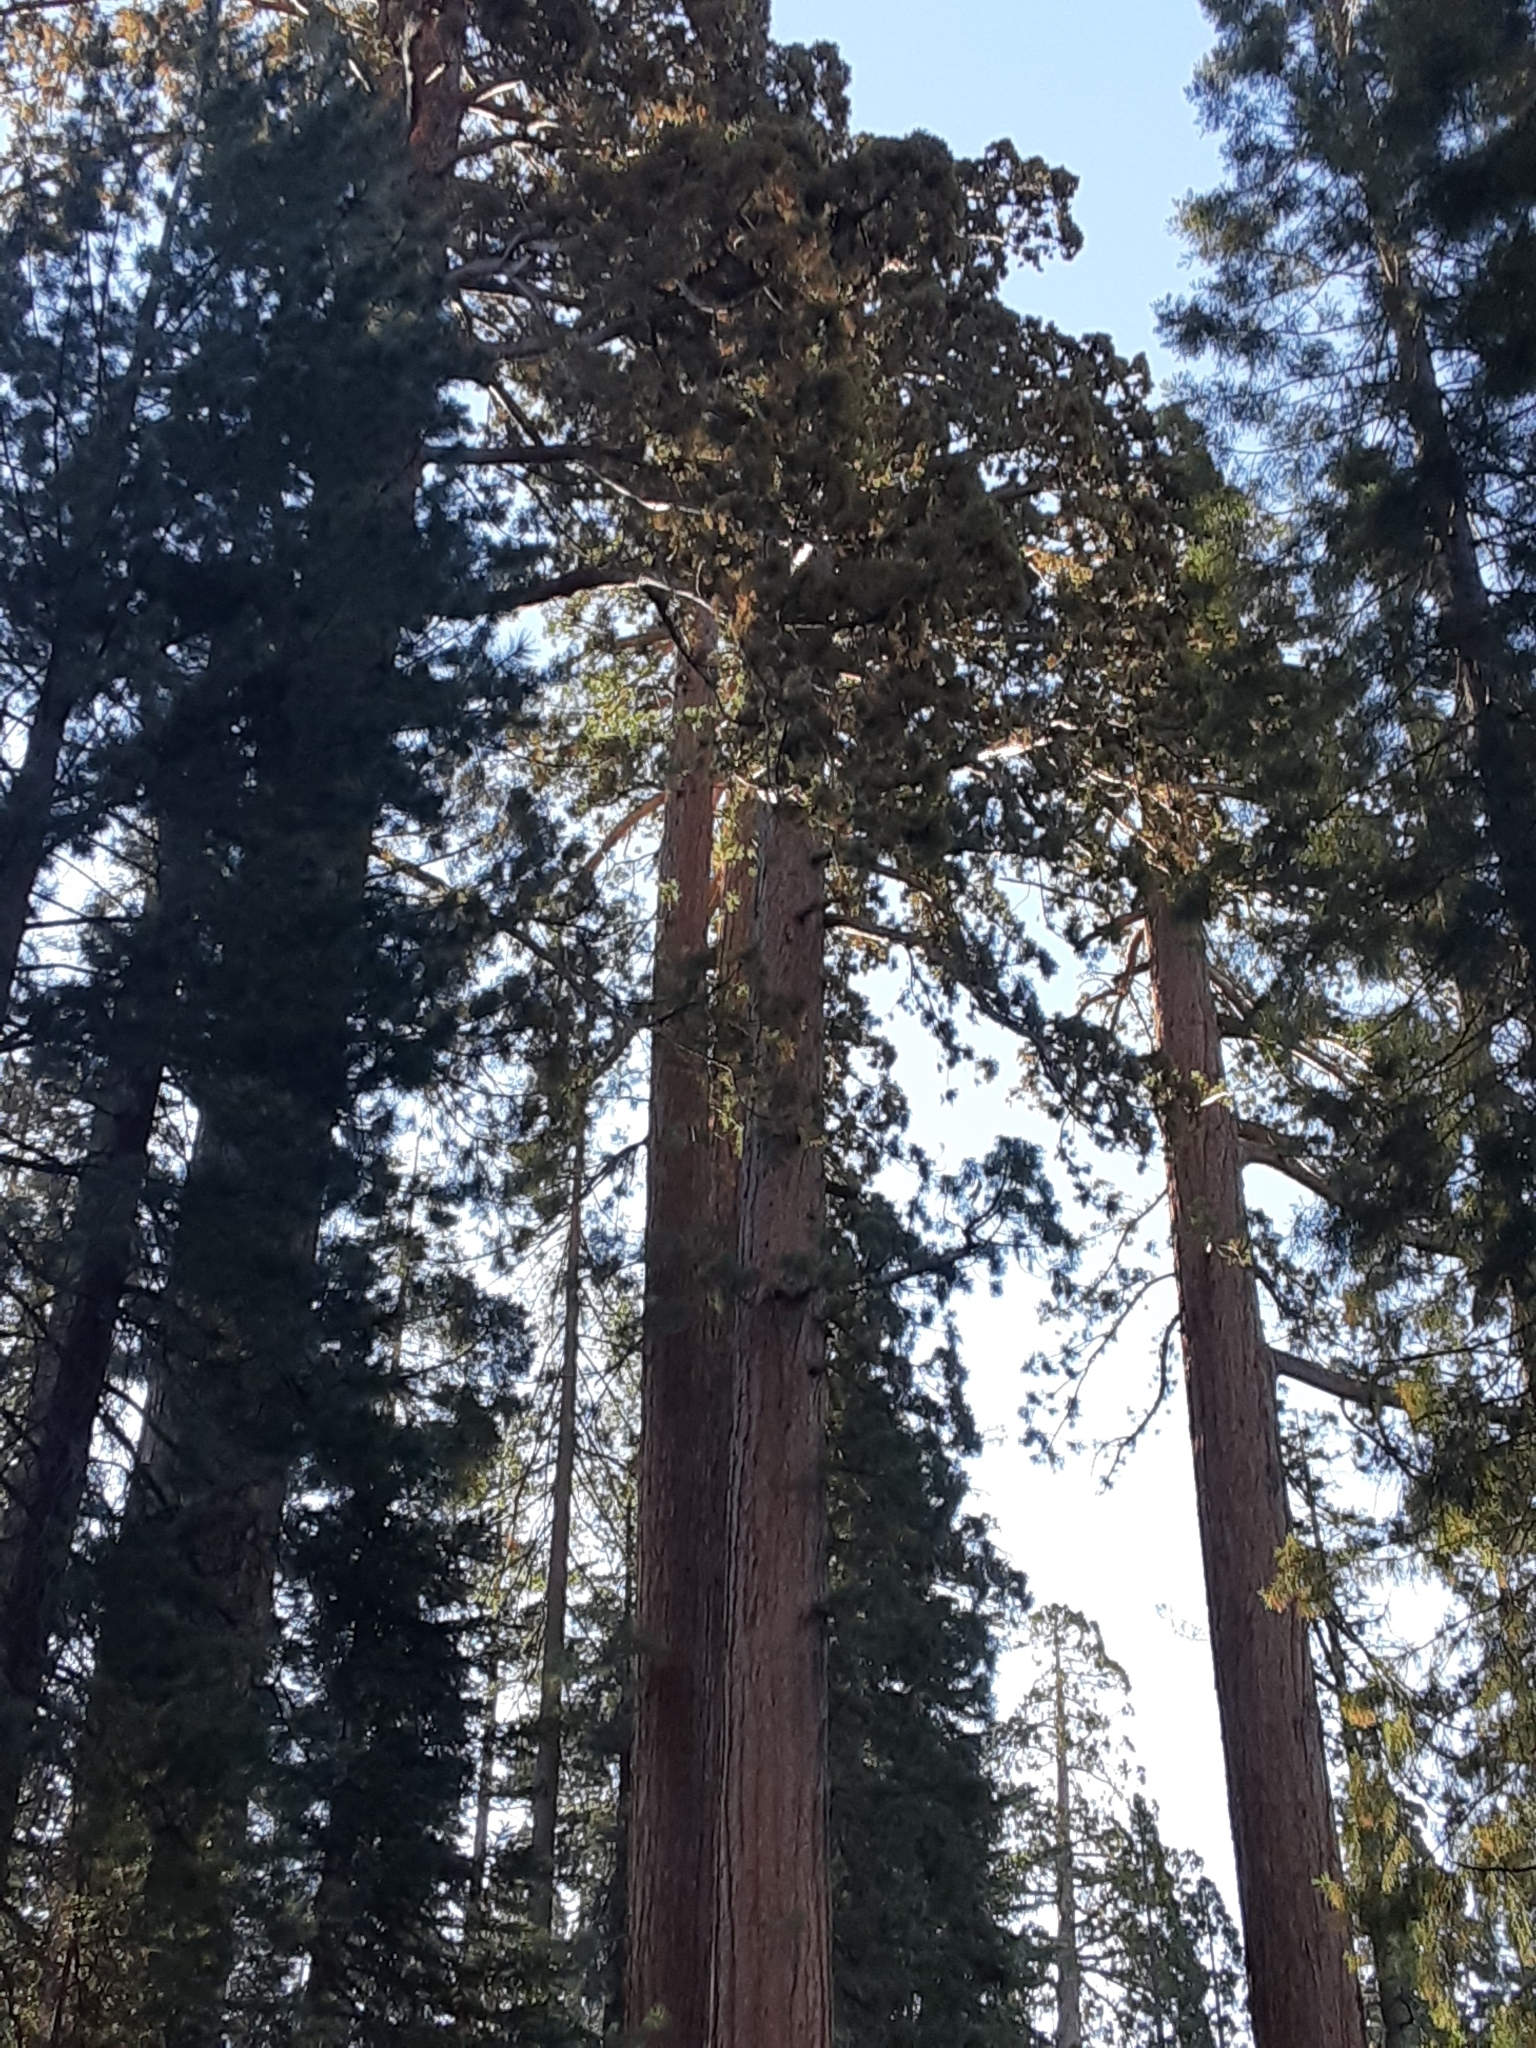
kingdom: Plantae
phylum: Tracheophyta
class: Pinopsida
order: Pinales
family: Cupressaceae
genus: Sequoiadendron
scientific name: Sequoiadendron giganteum
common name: Wellingtonia
